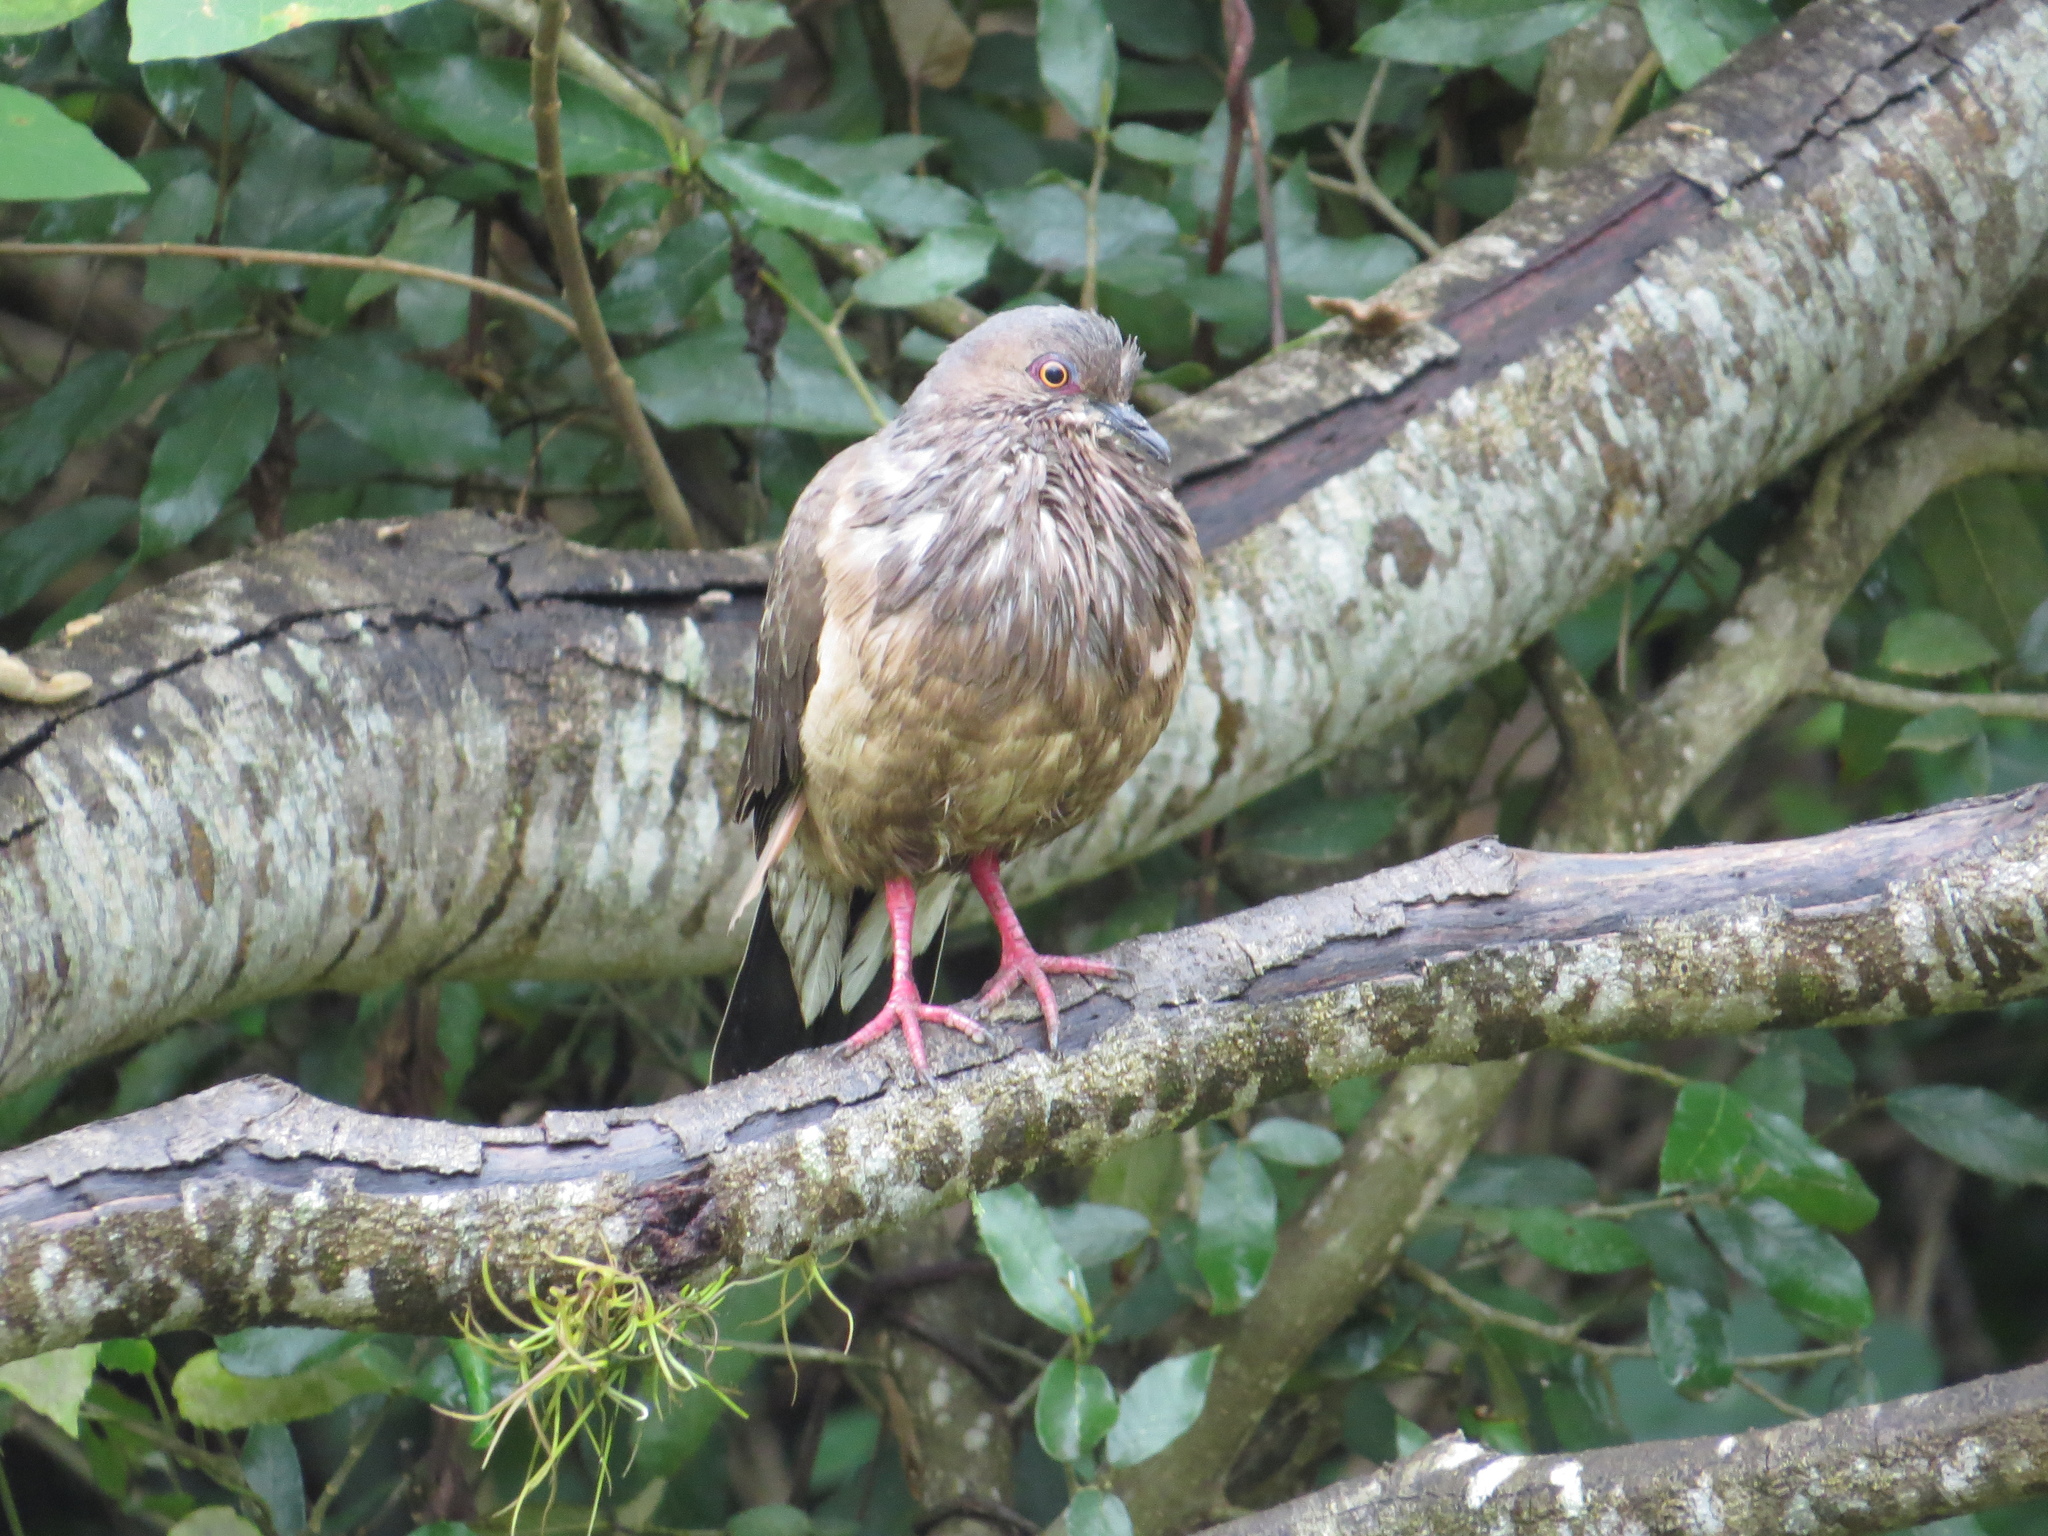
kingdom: Animalia
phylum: Chordata
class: Aves
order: Columbiformes
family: Columbidae
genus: Leptotila
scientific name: Leptotila verreauxi
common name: White-tipped dove
